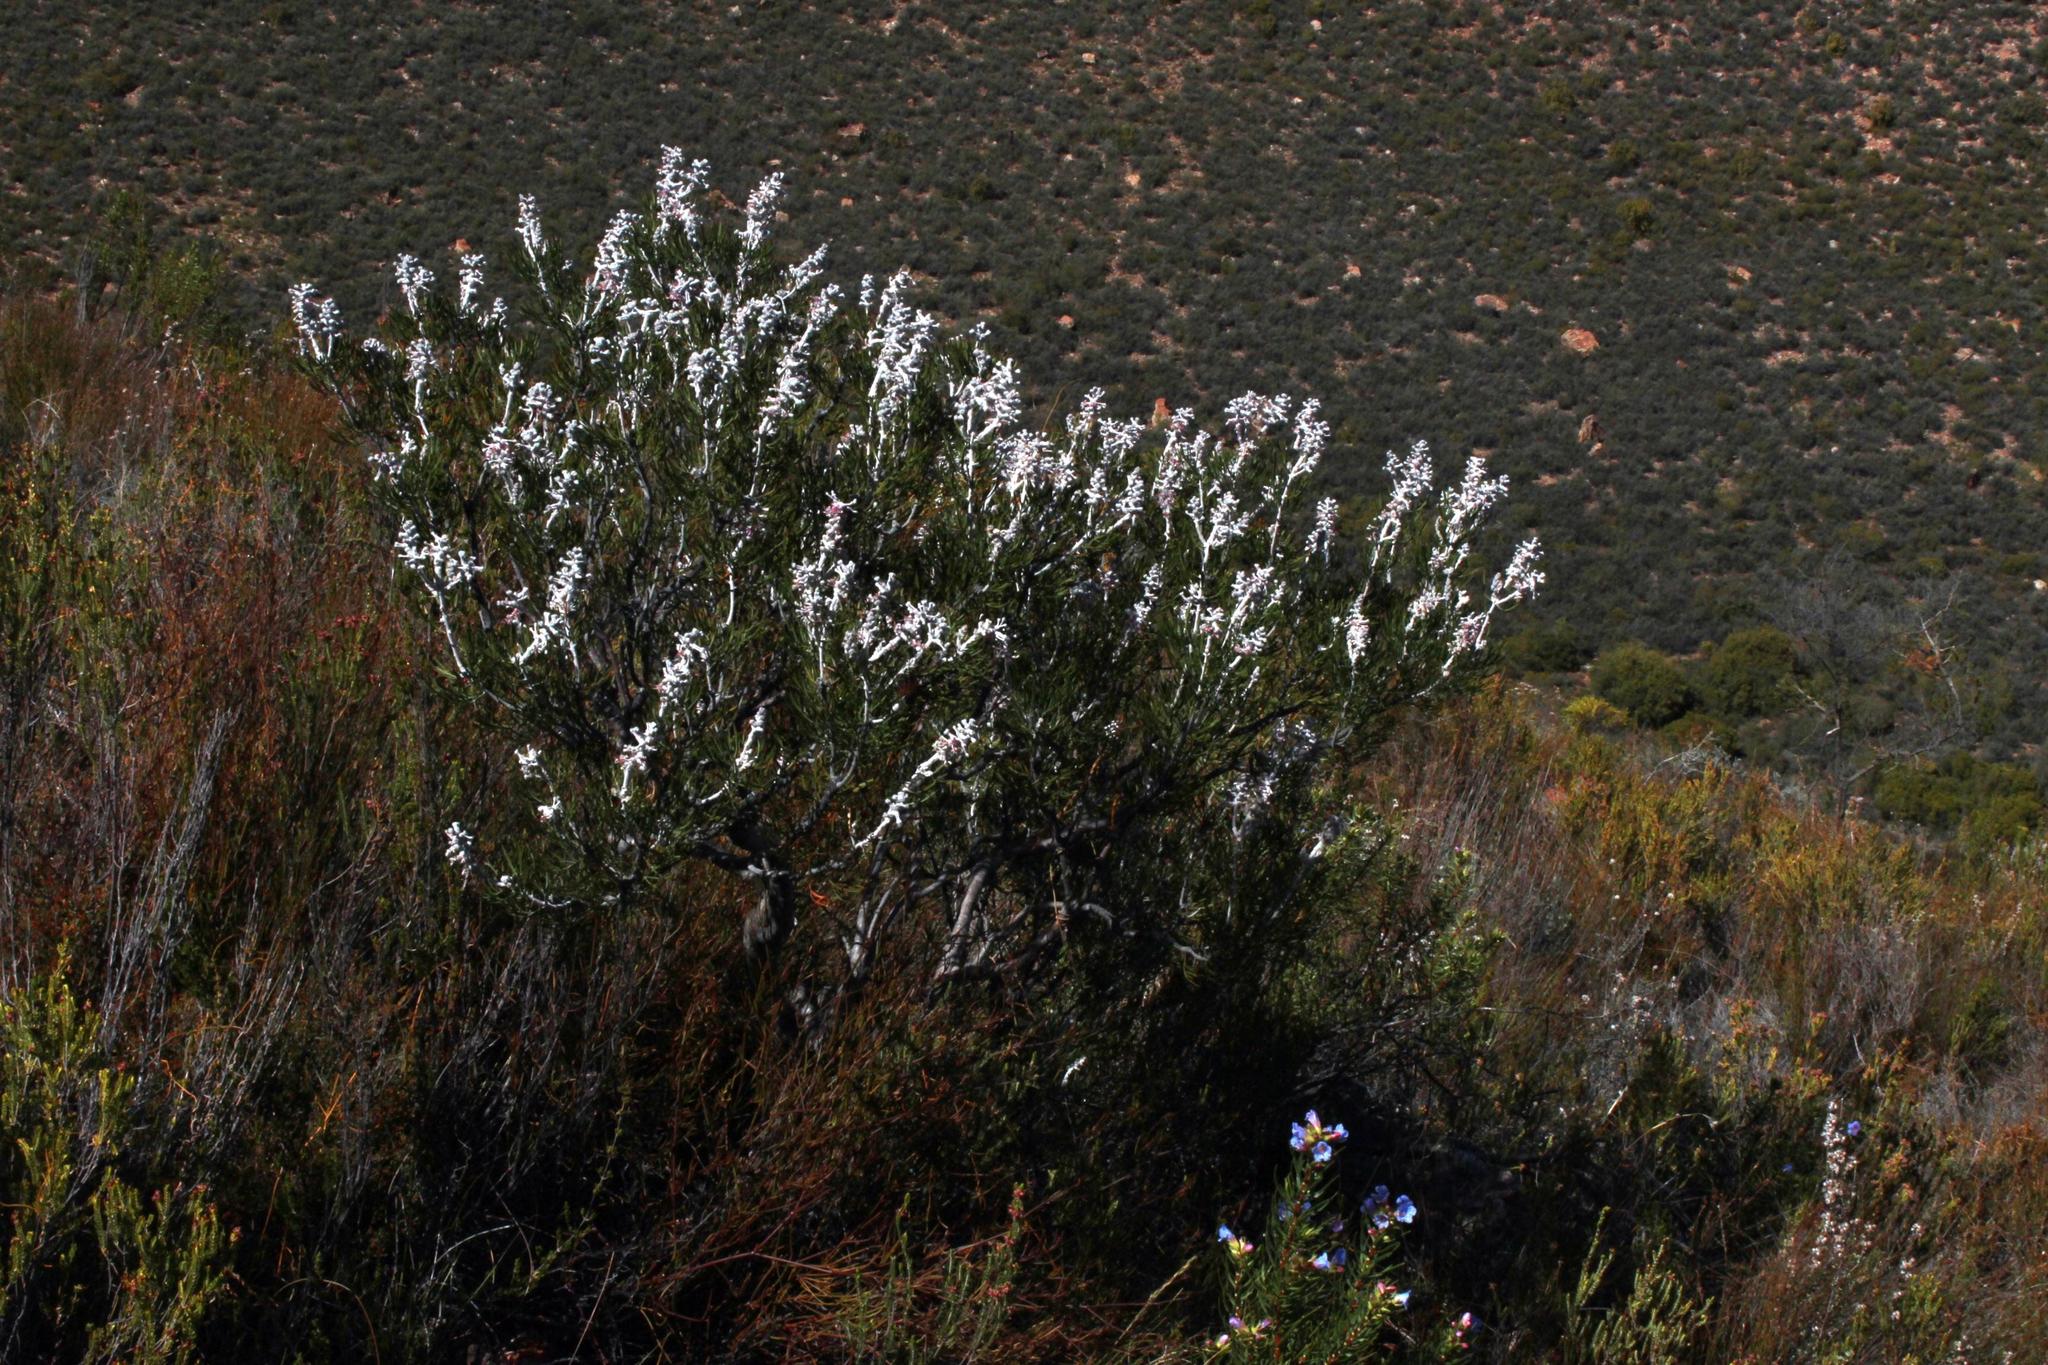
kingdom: Plantae
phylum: Tracheophyta
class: Magnoliopsida
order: Proteales
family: Proteaceae
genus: Paranomus
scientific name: Paranomus dispersus
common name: Long-head sceptre
